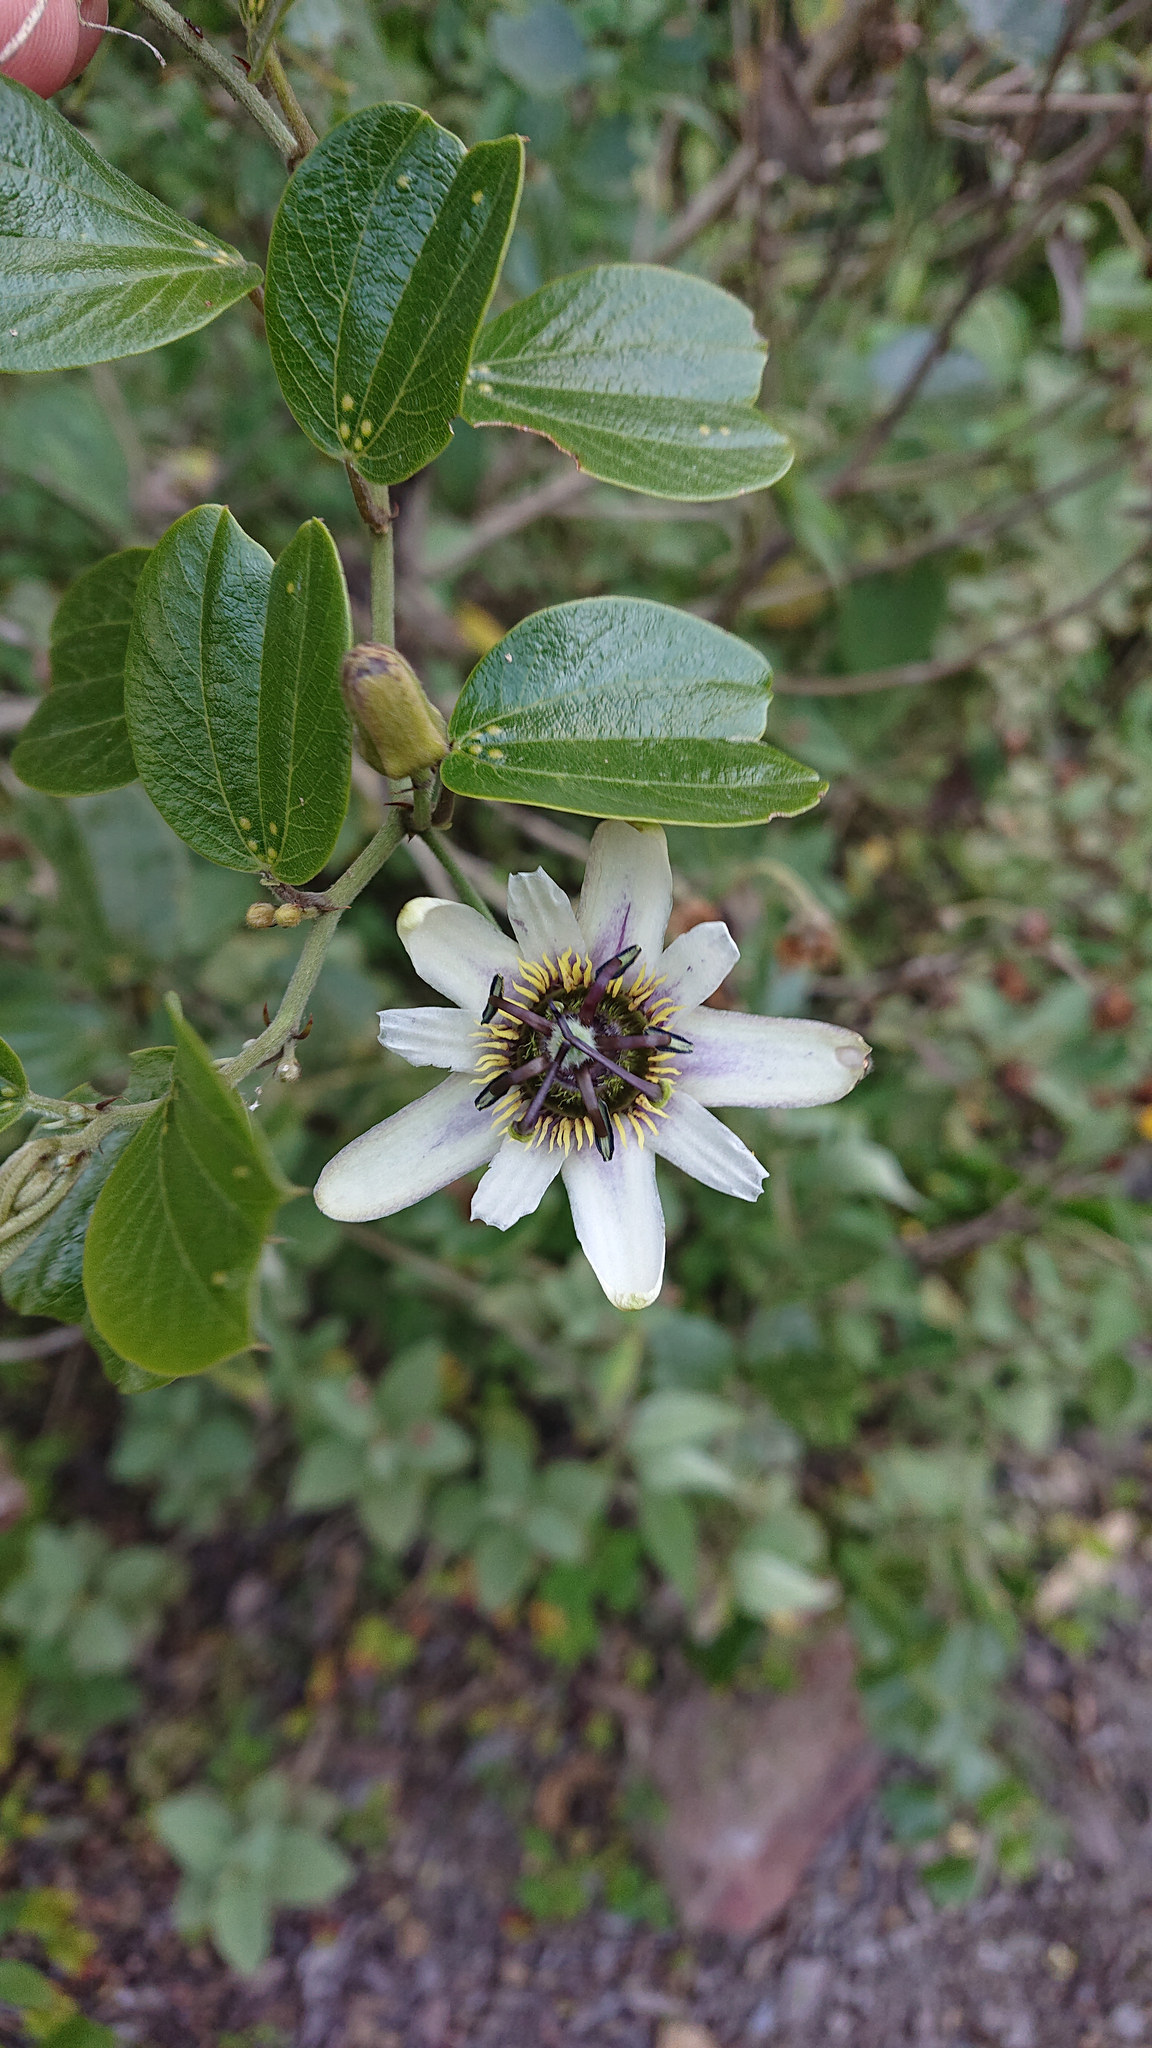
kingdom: Plantae
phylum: Tracheophyta
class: Magnoliopsida
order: Malpighiales
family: Passifloraceae
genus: Passiflora
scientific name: Passiflora alnifolia
